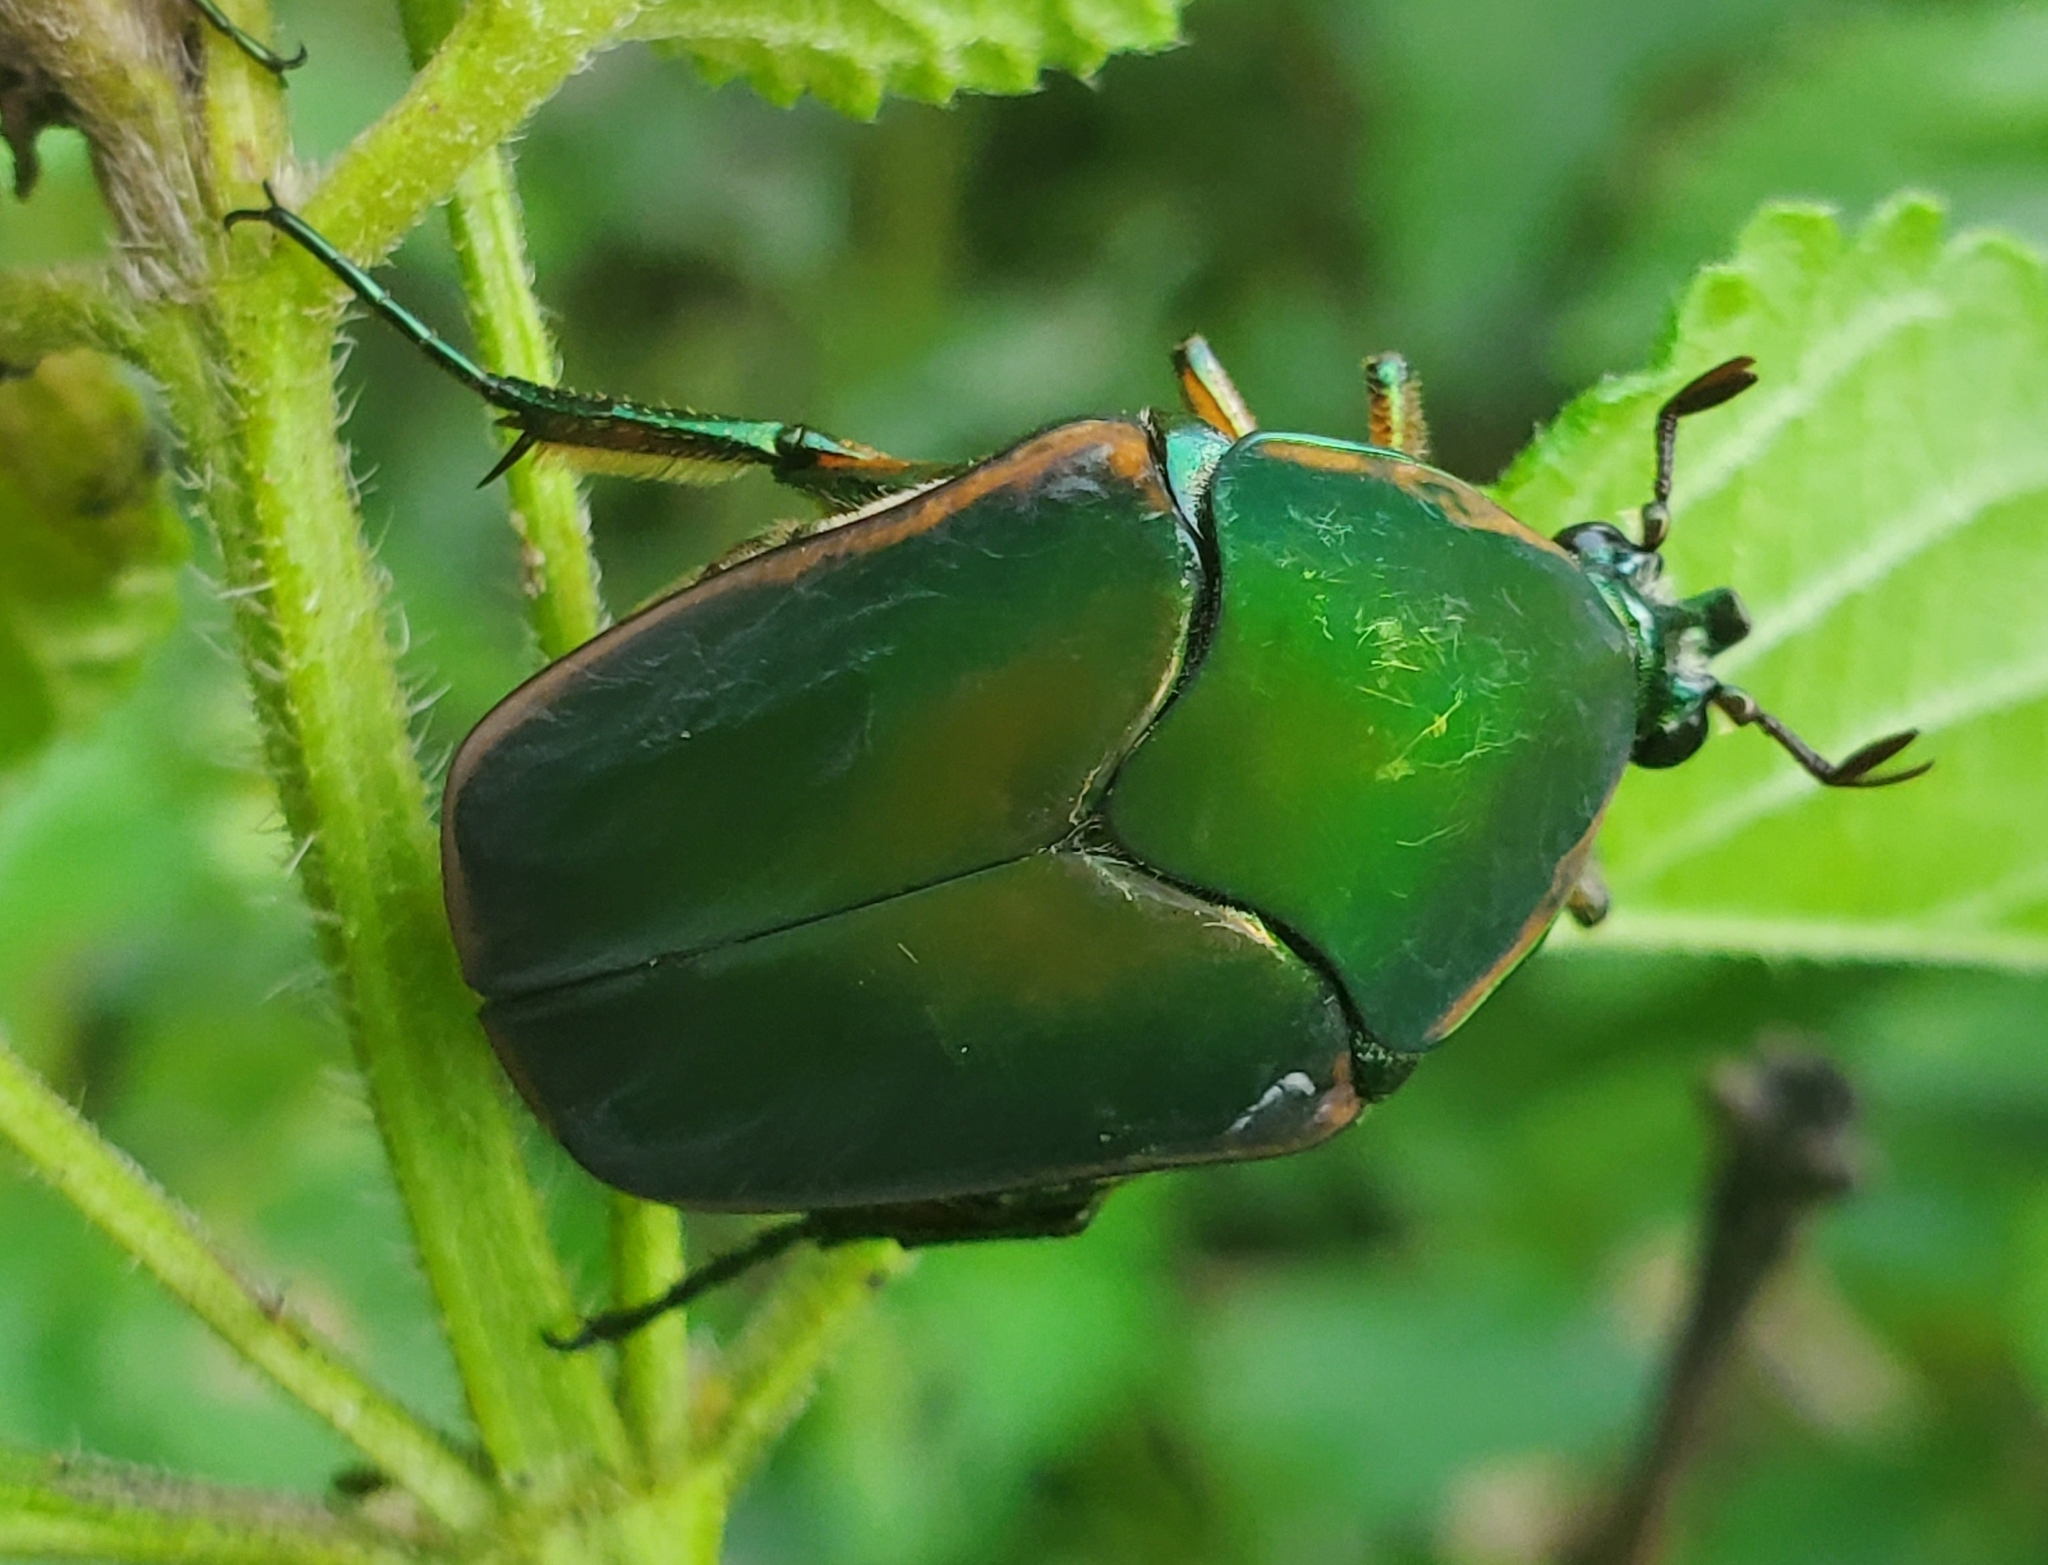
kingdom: Animalia
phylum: Arthropoda
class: Insecta
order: Coleoptera
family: Scarabaeidae
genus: Cotinis
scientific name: Cotinis nitida
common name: Common green june beetle
